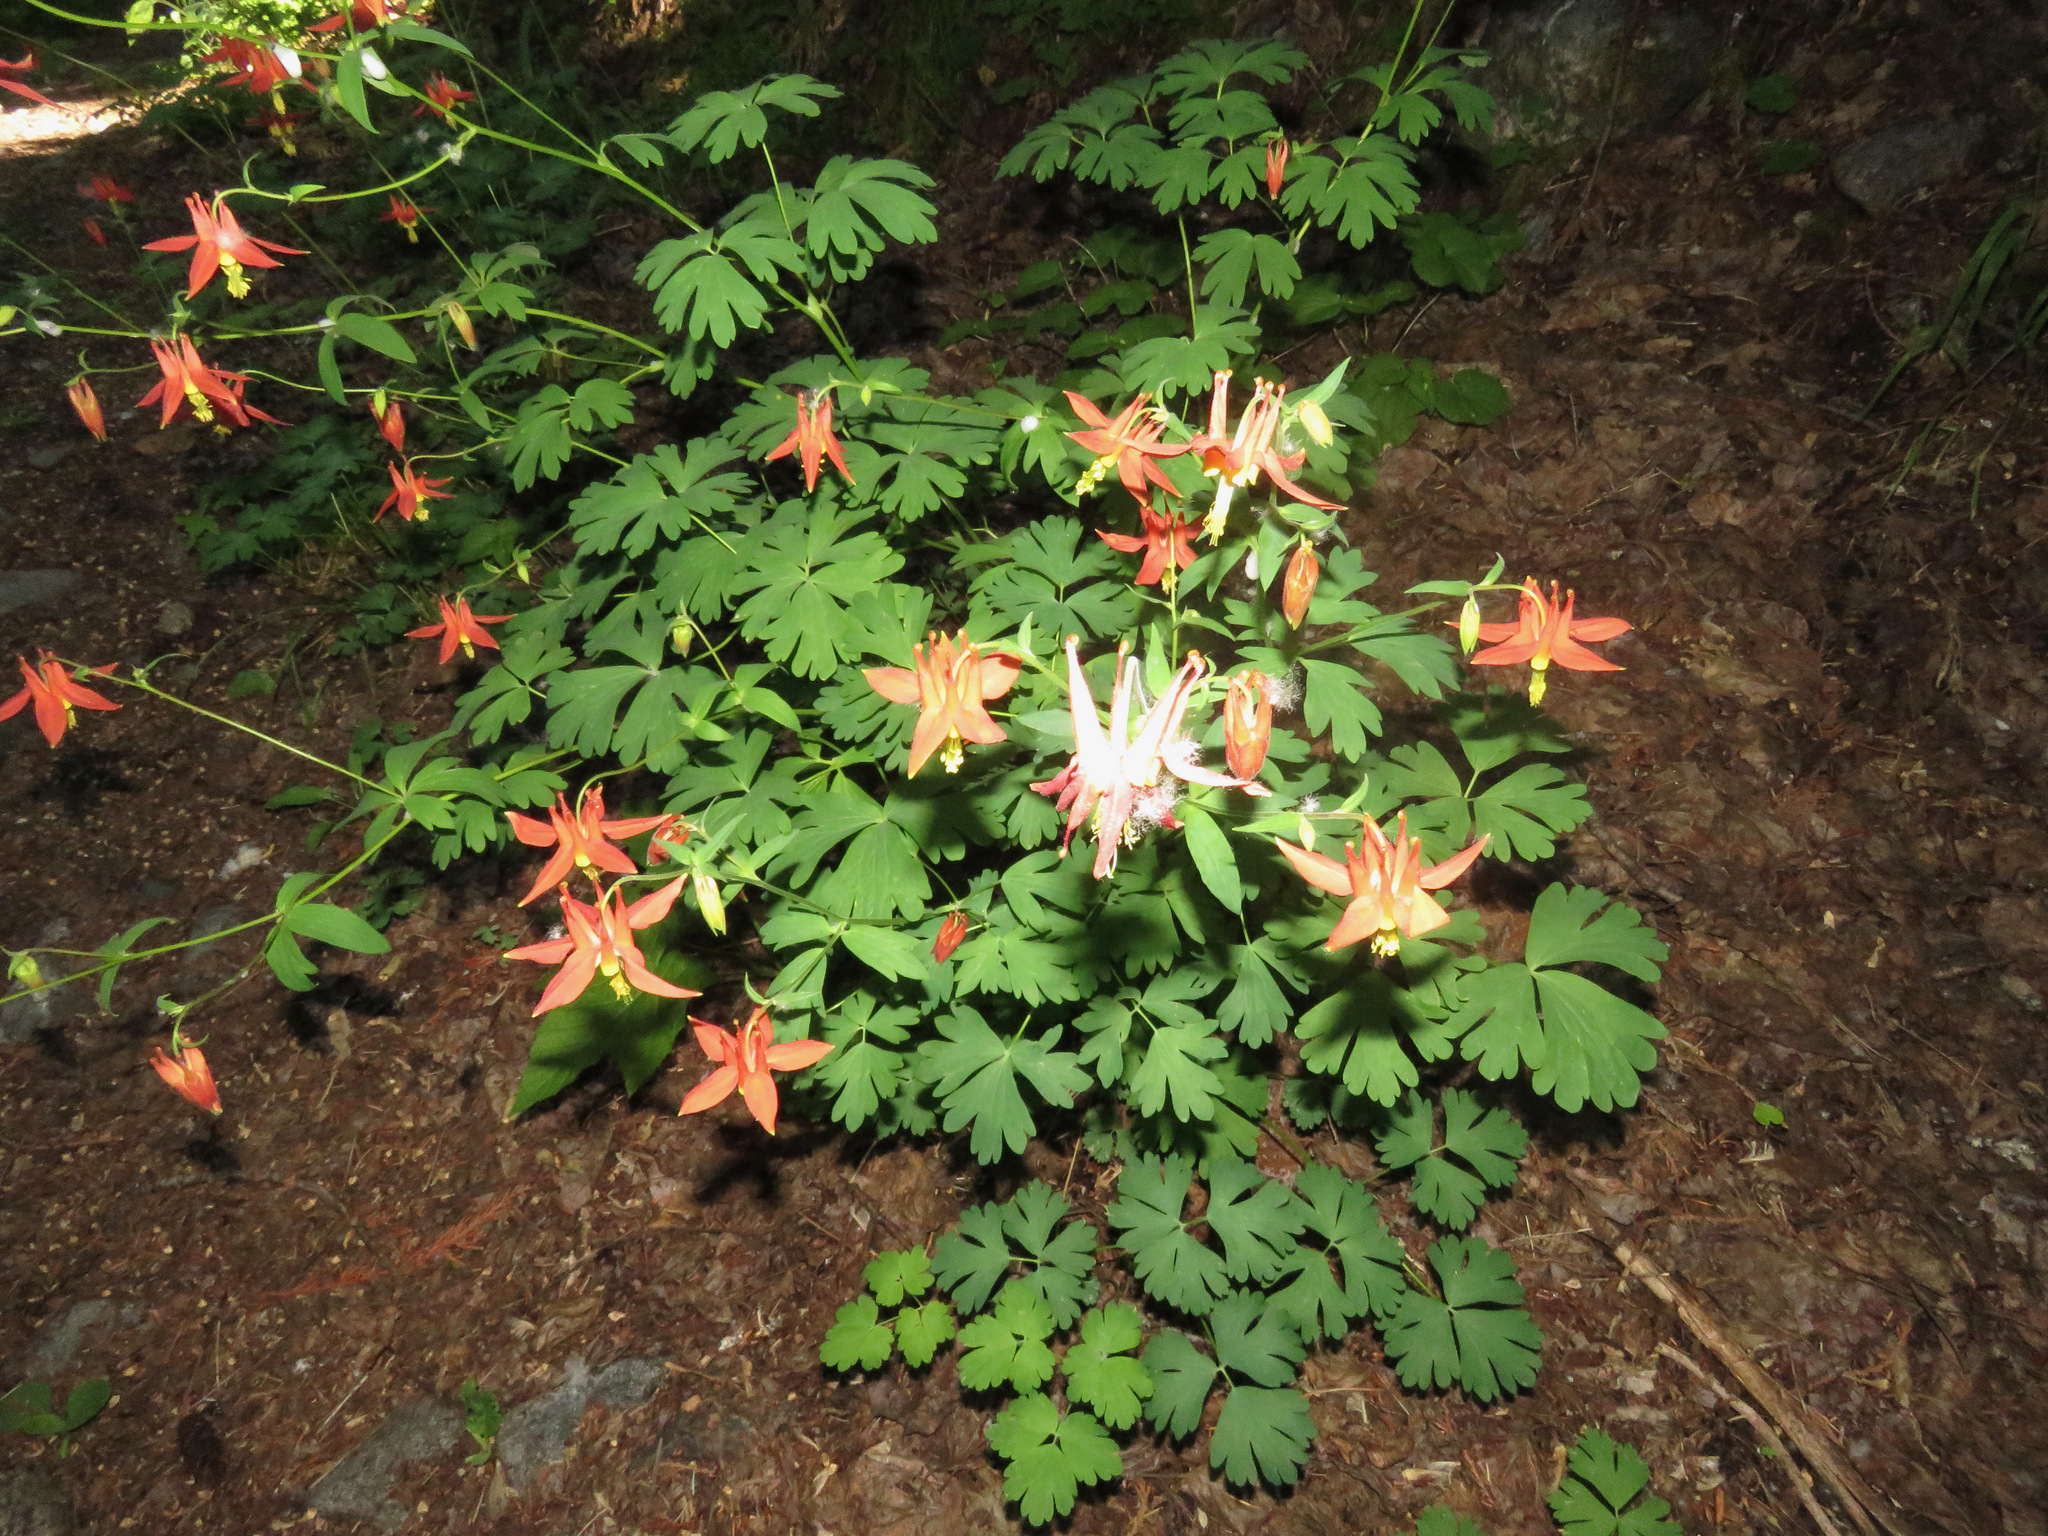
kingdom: Plantae
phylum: Tracheophyta
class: Magnoliopsida
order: Ranunculales
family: Ranunculaceae
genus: Aquilegia
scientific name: Aquilegia formosa
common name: Sitka columbine
